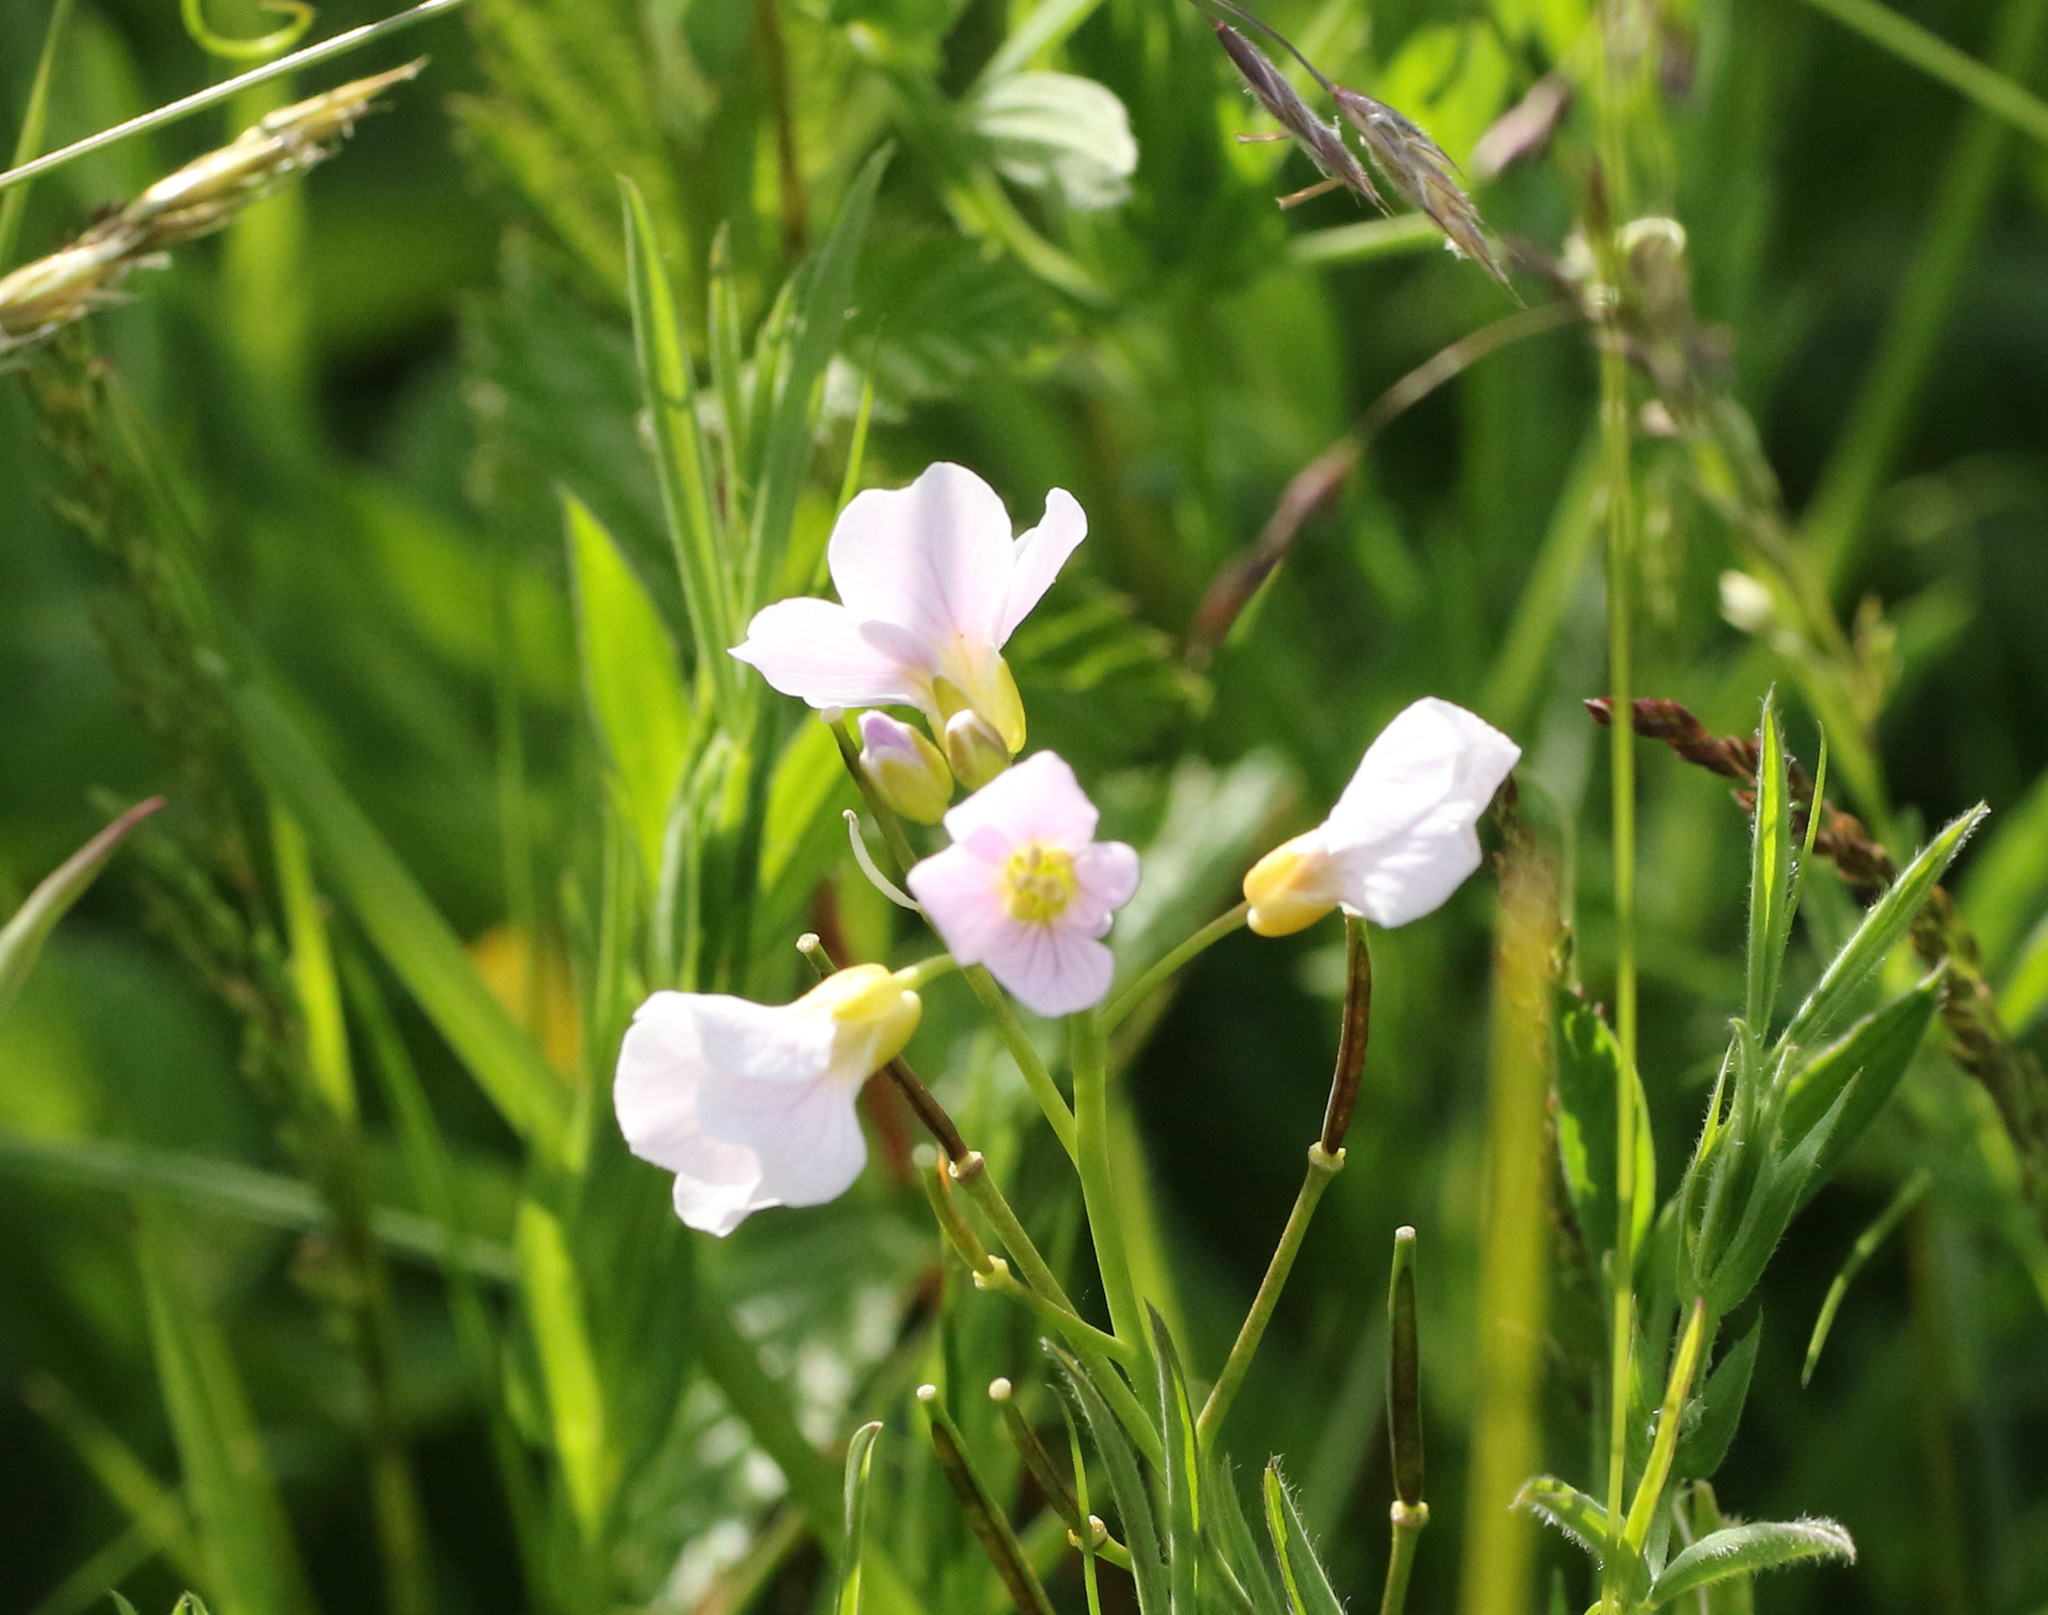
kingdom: Plantae
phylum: Tracheophyta
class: Magnoliopsida
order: Brassicales
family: Brassicaceae
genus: Cardamine
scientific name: Cardamine pratensis
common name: Cuckoo flower
